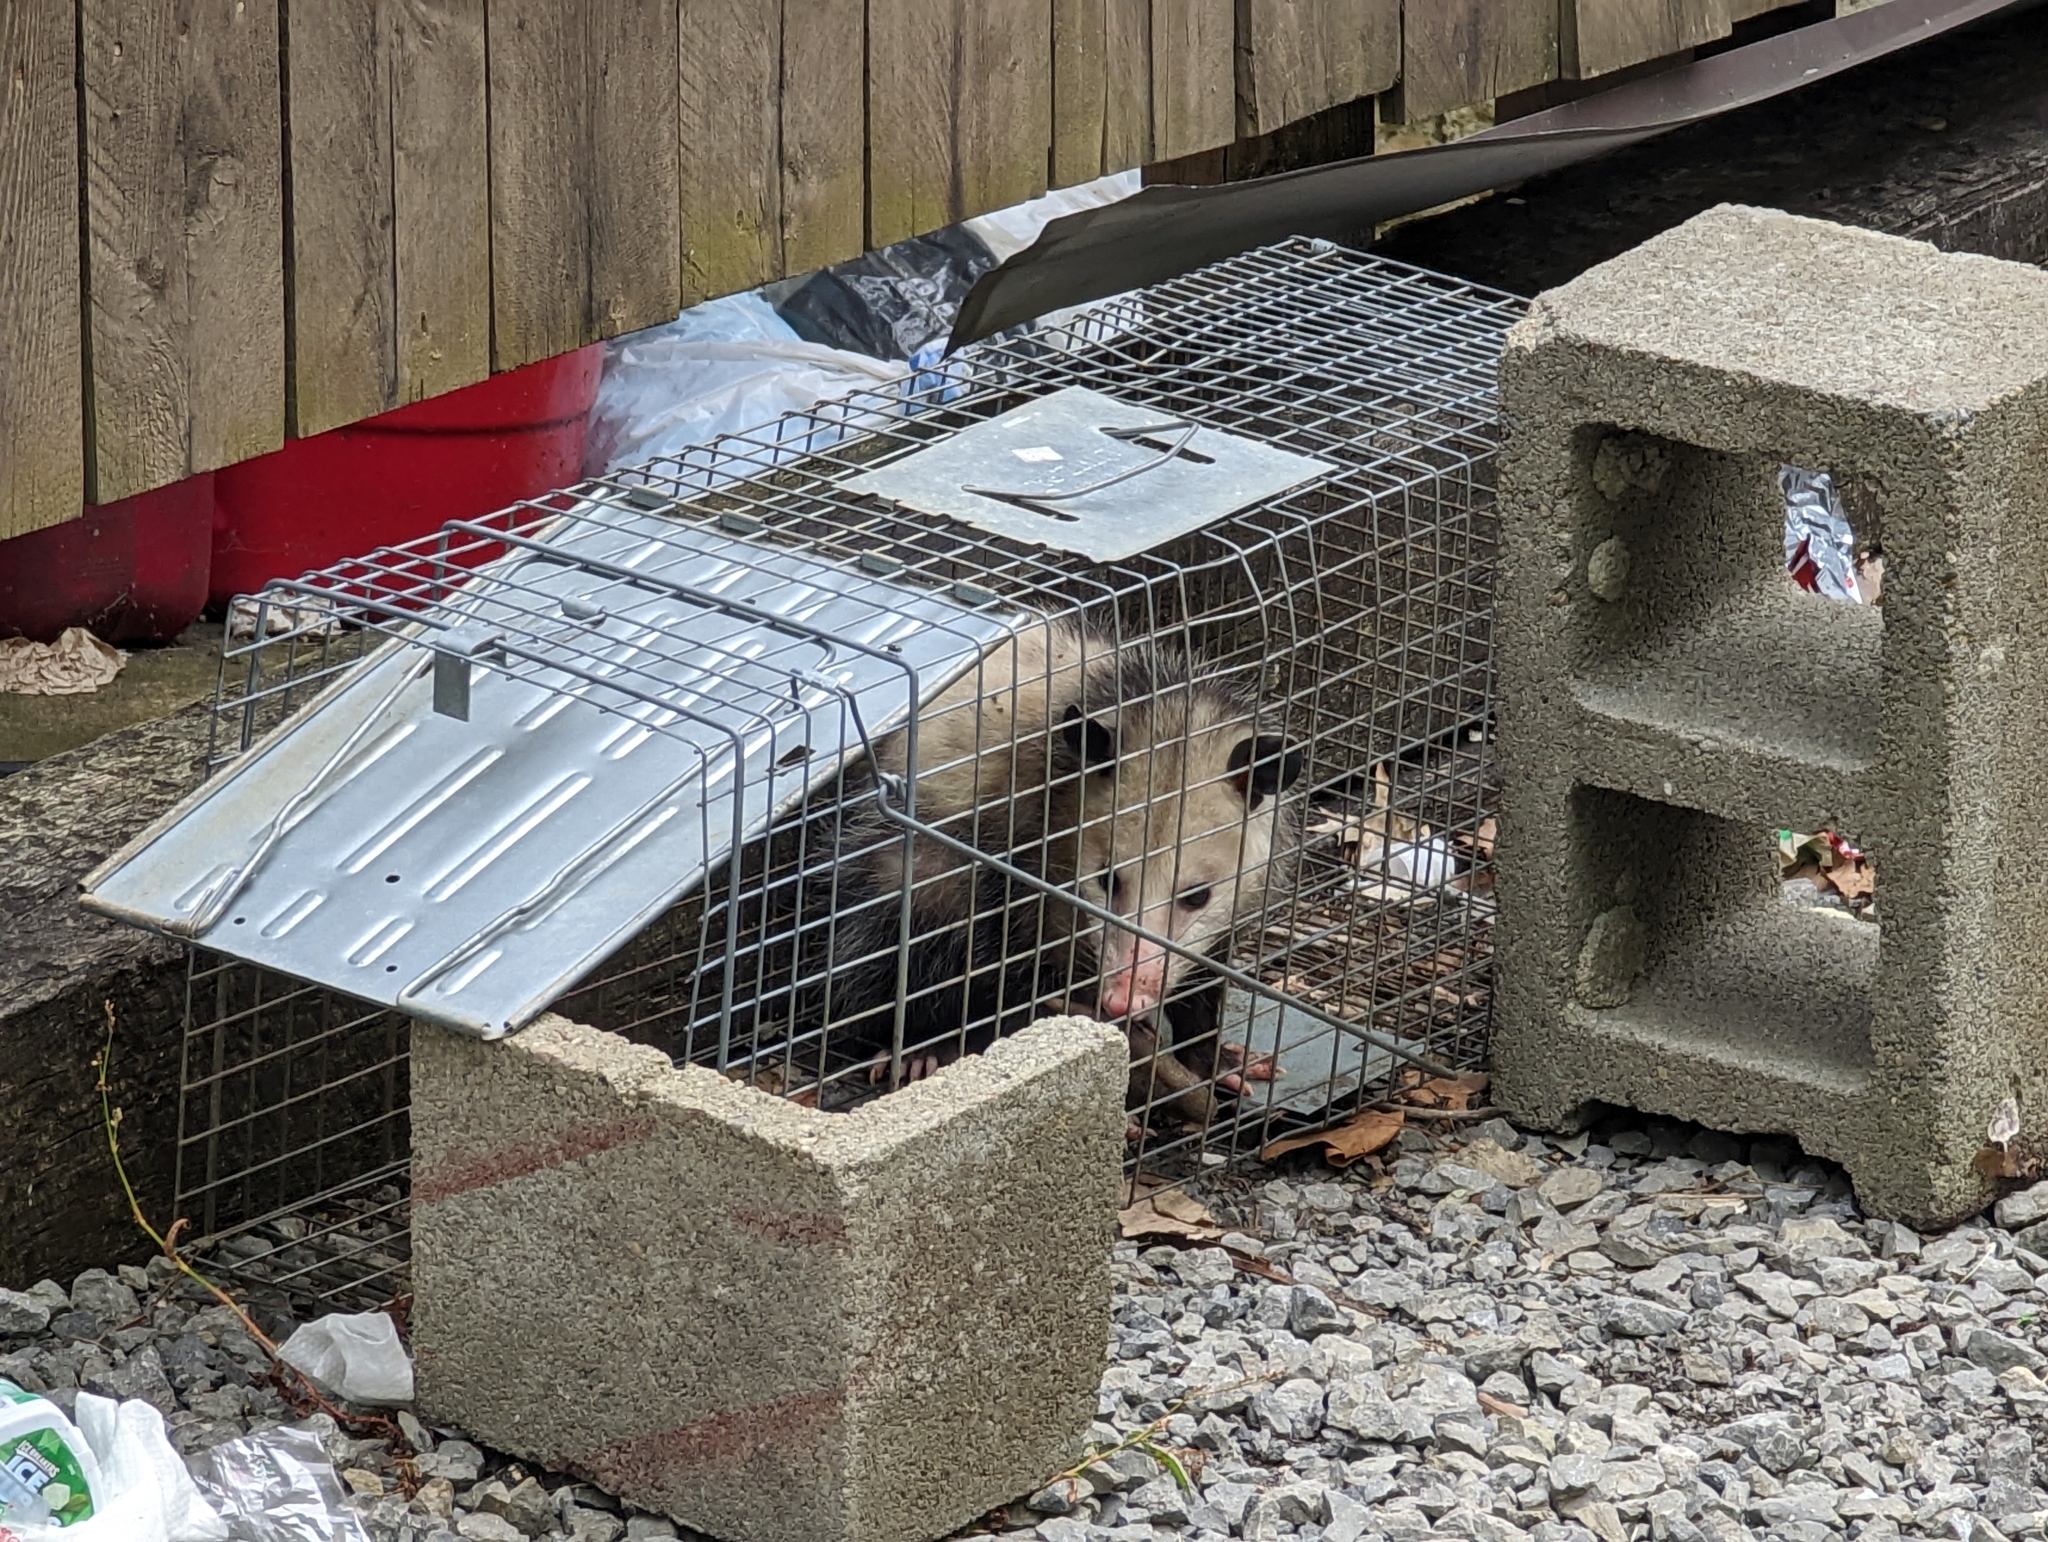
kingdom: Animalia
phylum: Chordata
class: Mammalia
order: Didelphimorphia
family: Didelphidae
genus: Didelphis
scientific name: Didelphis virginiana
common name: Virginia opossum
